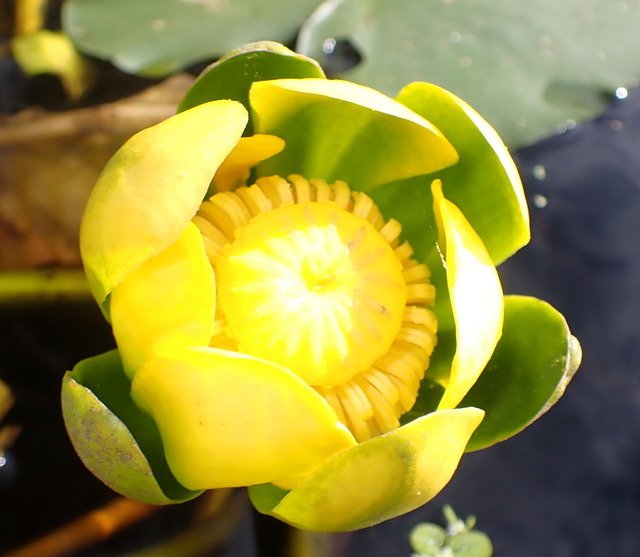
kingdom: Plantae
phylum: Tracheophyta
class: Magnoliopsida
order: Nymphaeales
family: Nymphaeaceae
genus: Nuphar
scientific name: Nuphar advena
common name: Spatter-dock
